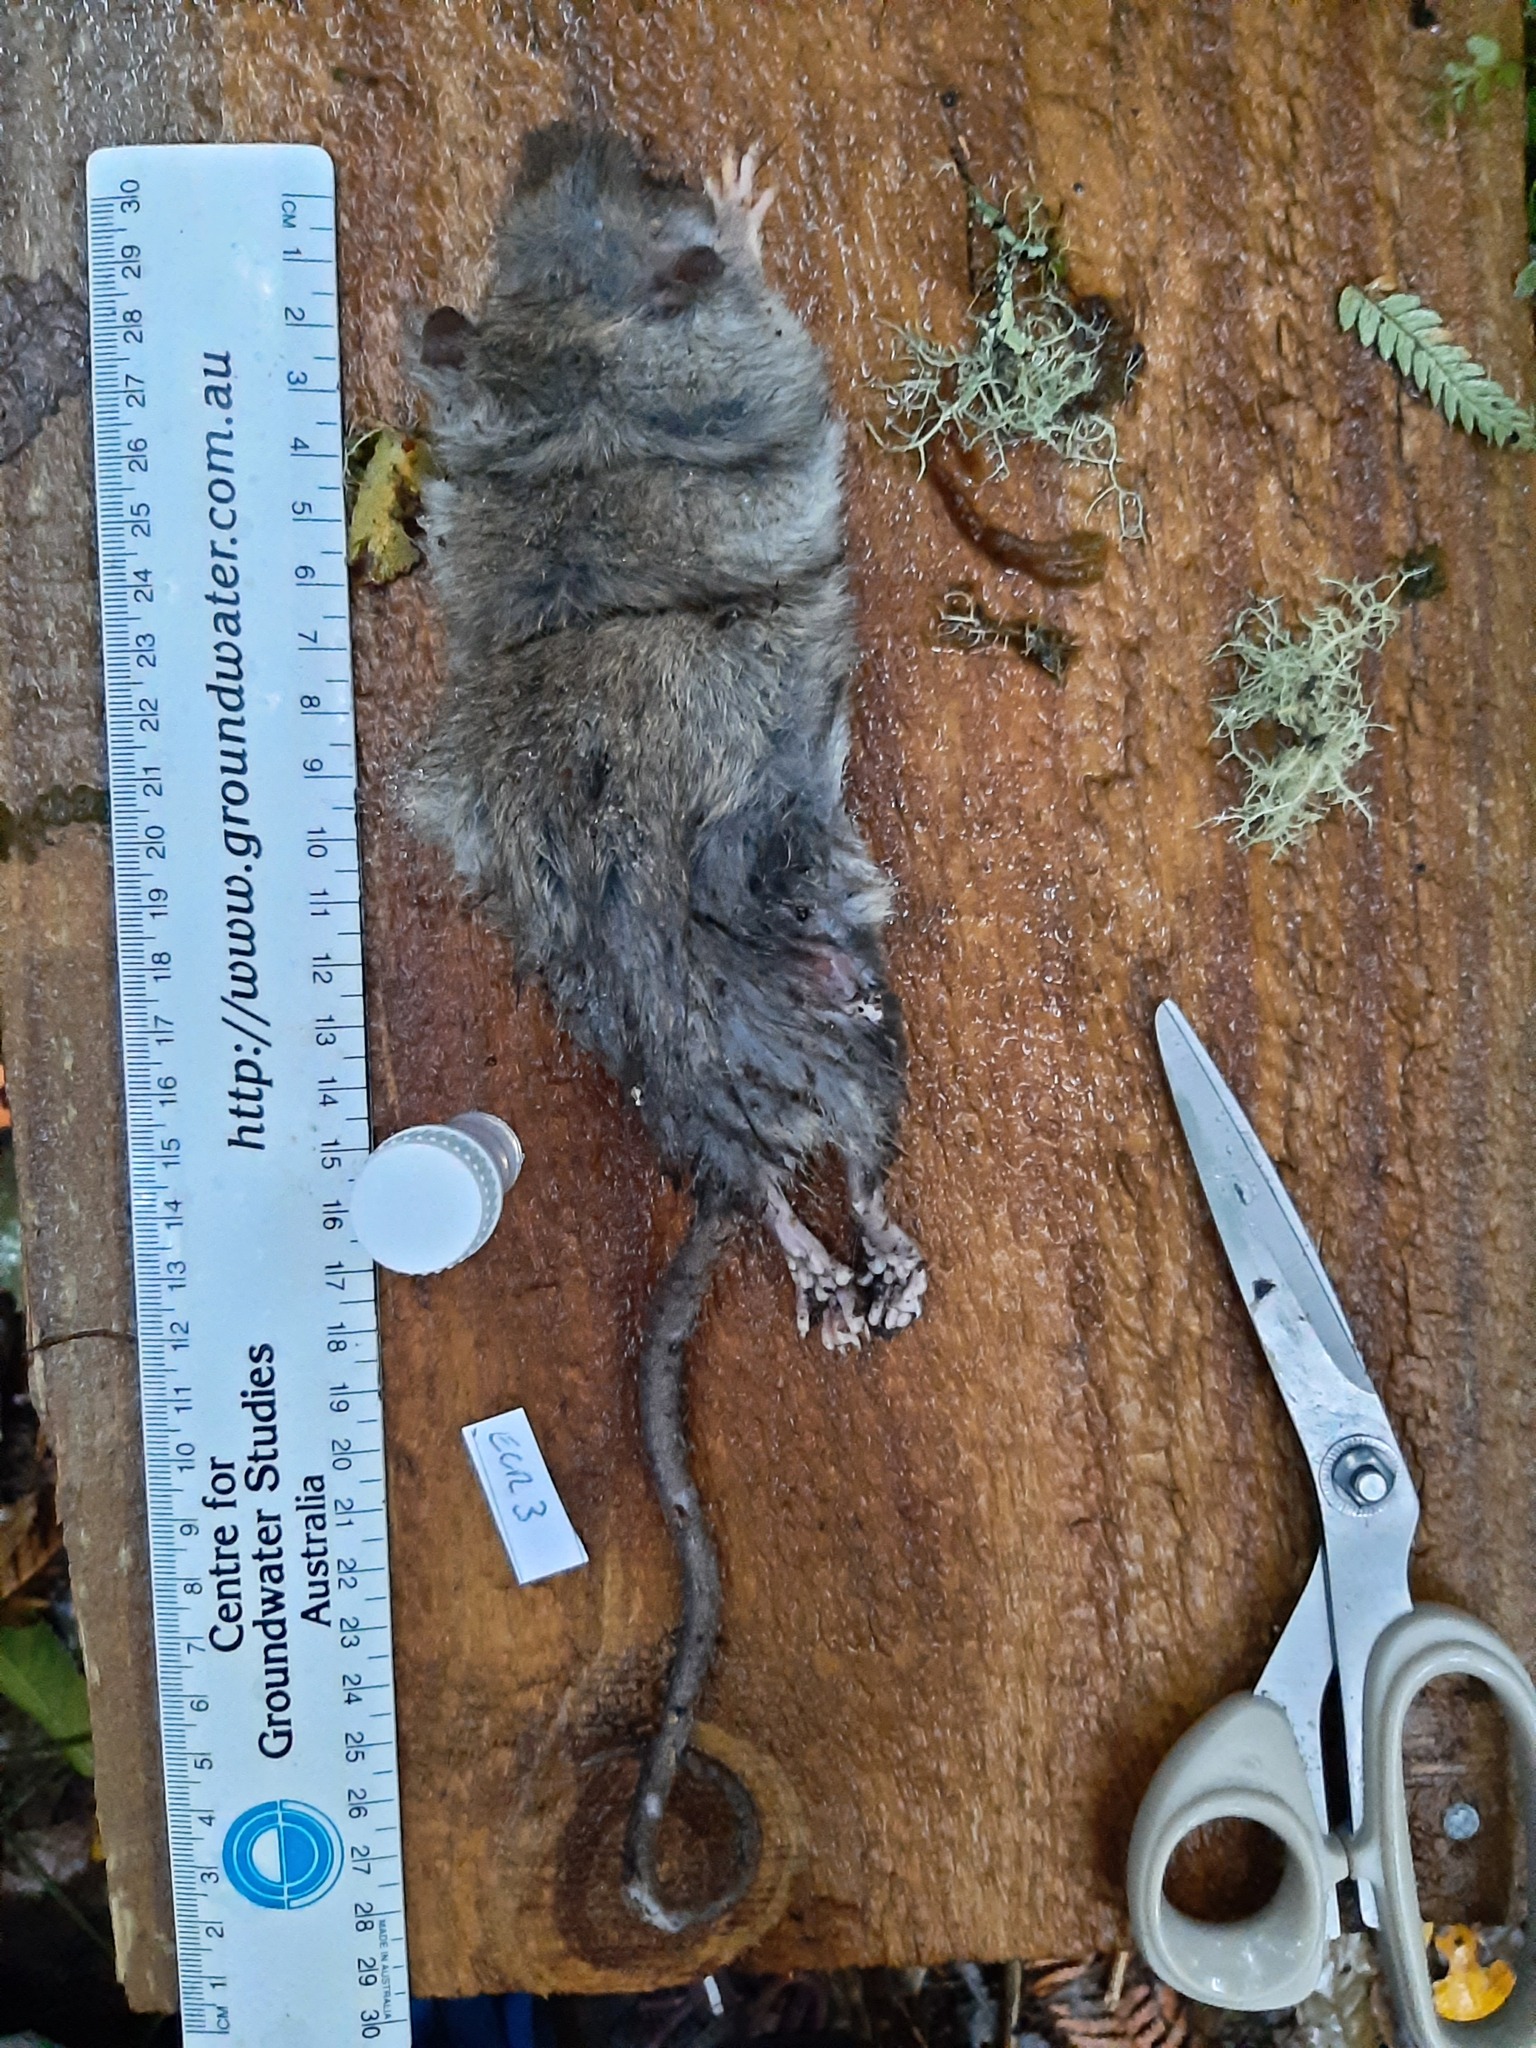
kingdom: Animalia
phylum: Chordata
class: Mammalia
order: Rodentia
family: Muridae
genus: Rattus
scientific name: Rattus rattus
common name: Black rat
